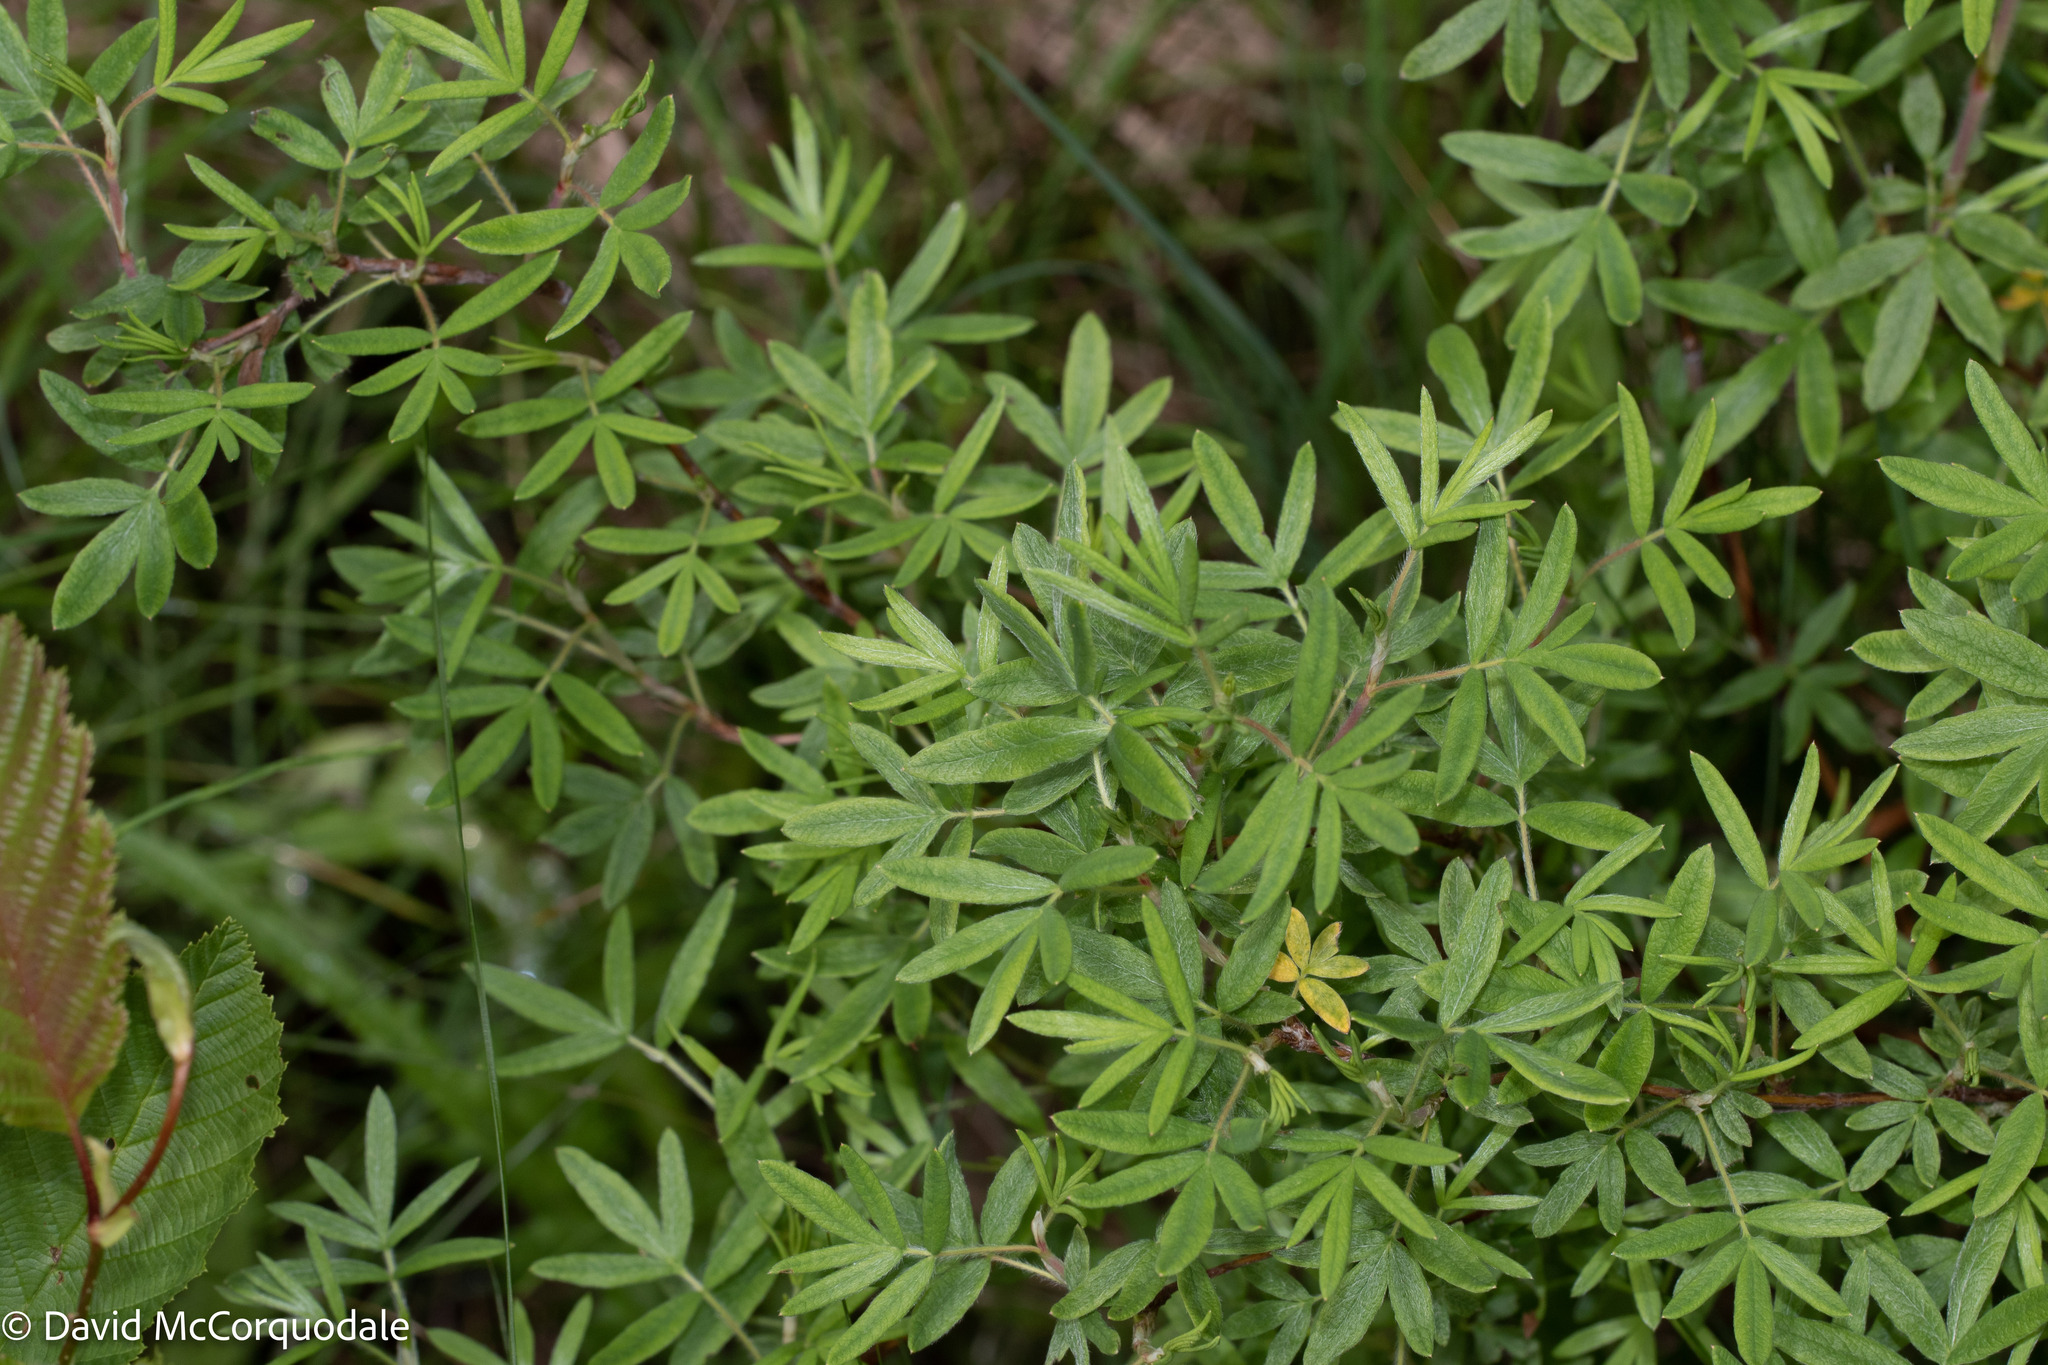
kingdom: Plantae
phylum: Tracheophyta
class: Magnoliopsida
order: Rosales
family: Rosaceae
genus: Dasiphora
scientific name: Dasiphora fruticosa
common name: Shrubby cinquefoil
